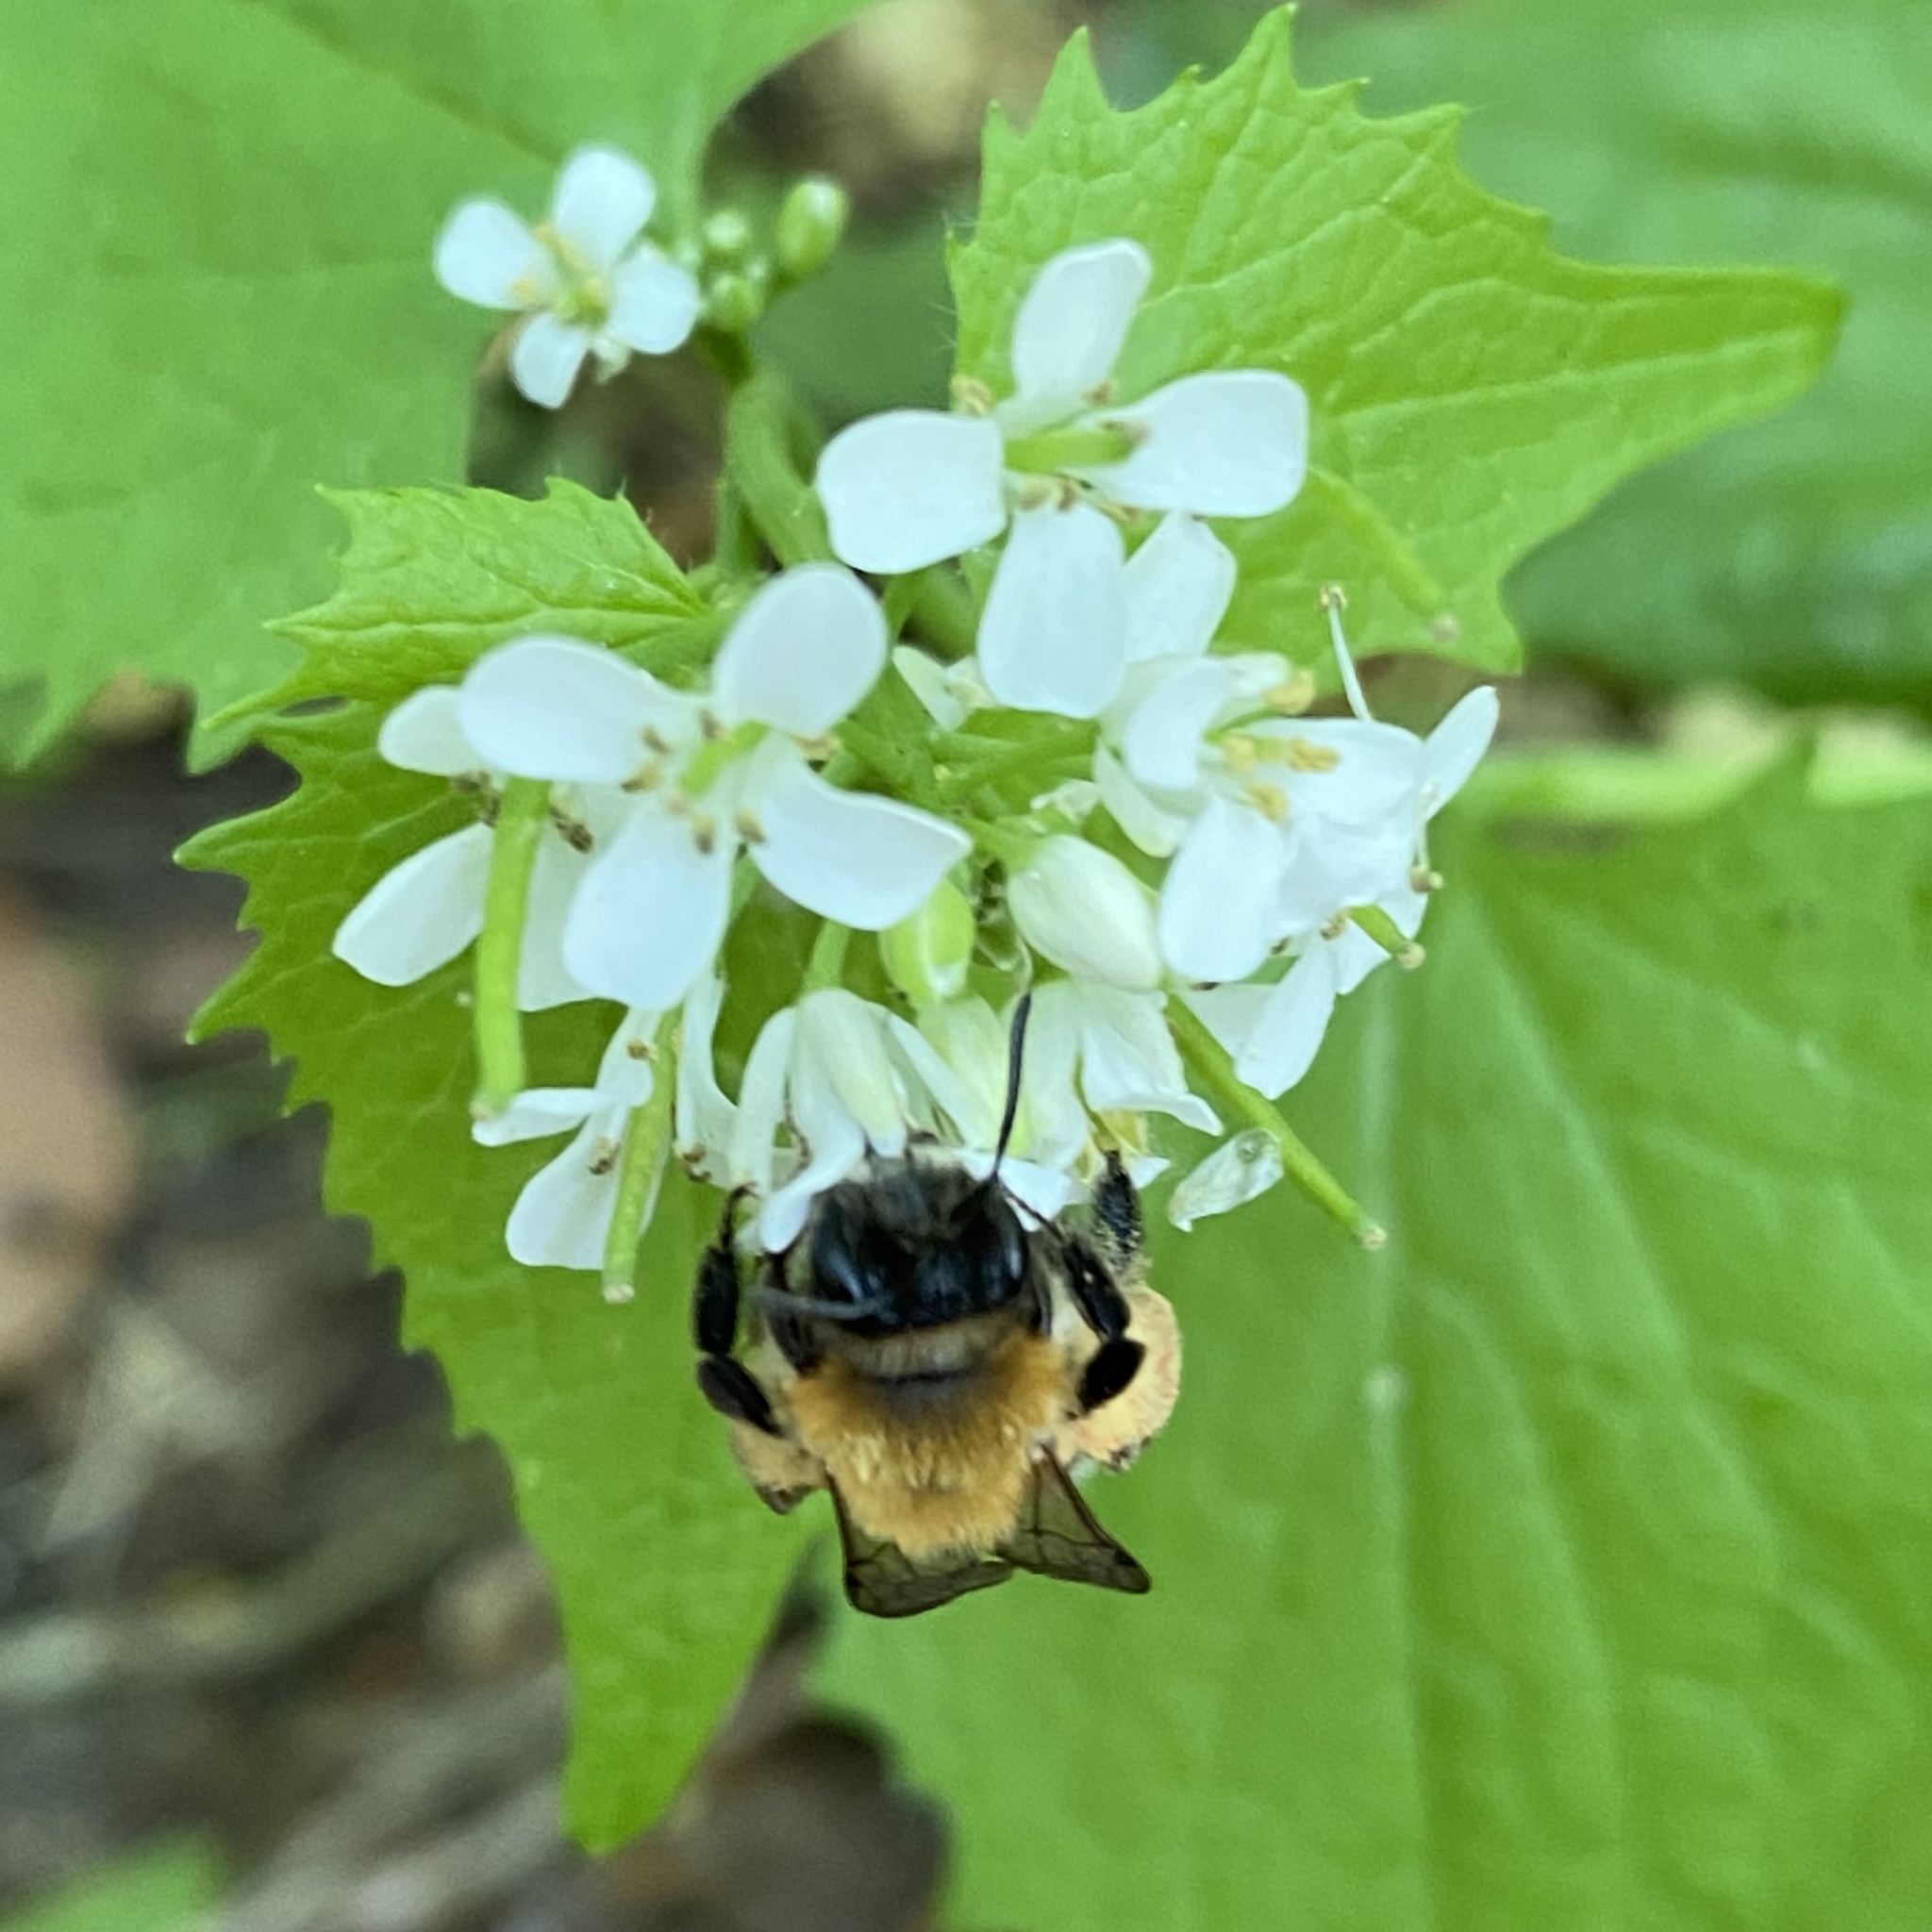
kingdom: Plantae
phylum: Tracheophyta
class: Magnoliopsida
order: Brassicales
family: Brassicaceae
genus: Alliaria
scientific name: Alliaria petiolata
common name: Garlic mustard
